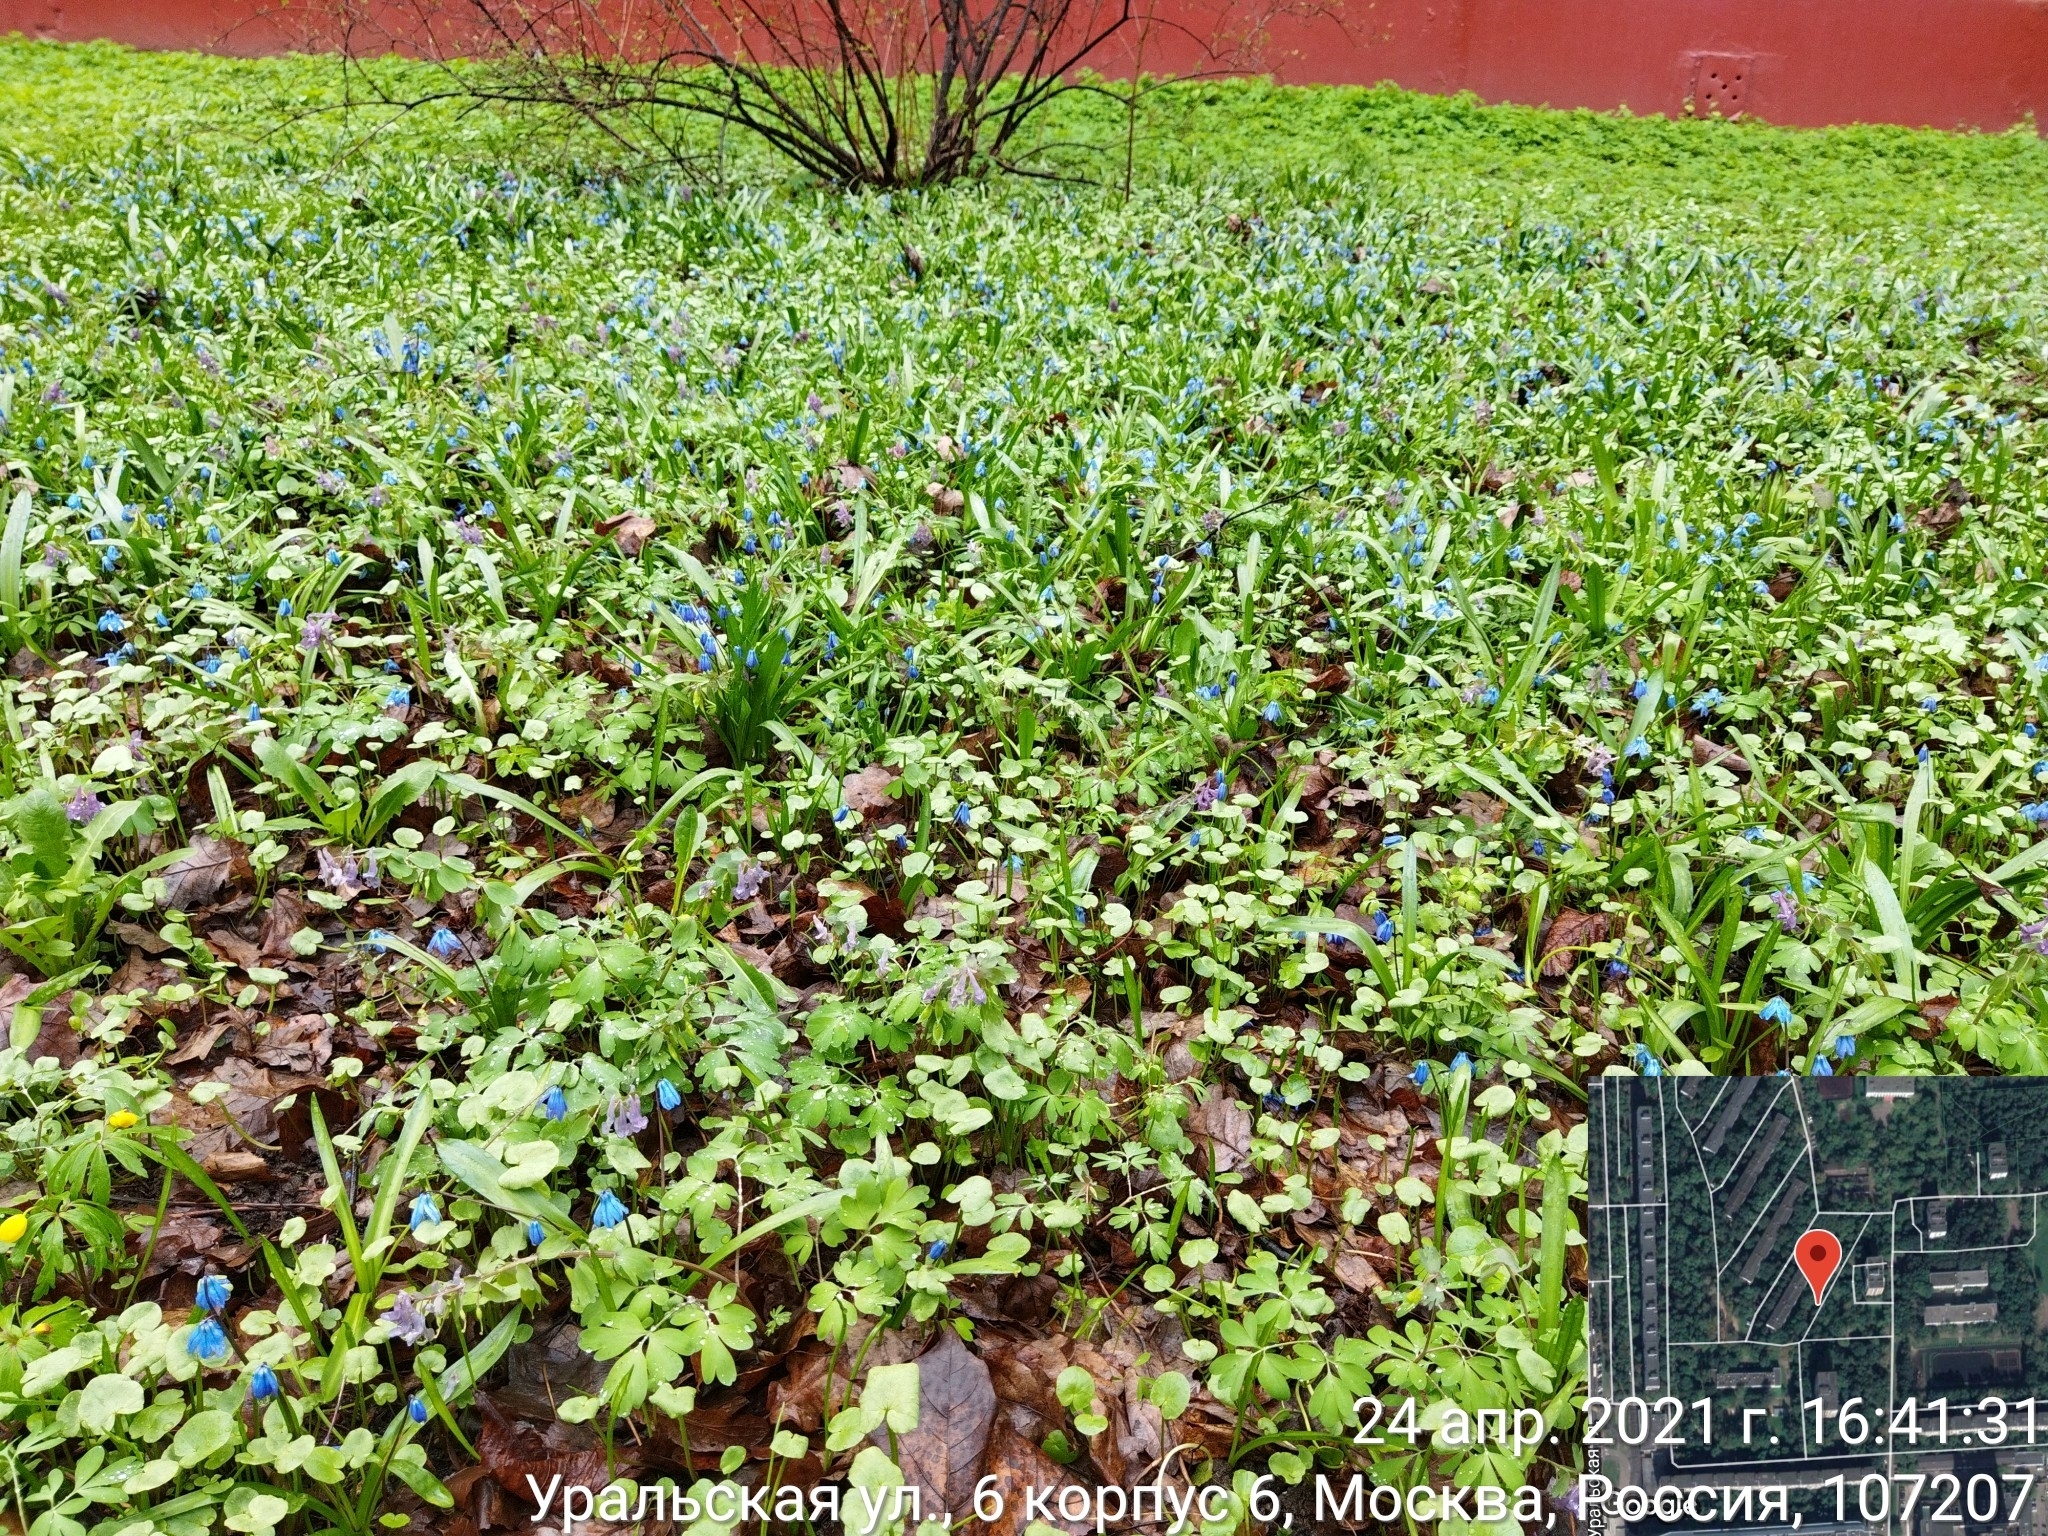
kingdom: Plantae
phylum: Tracheophyta
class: Liliopsida
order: Asparagales
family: Asparagaceae
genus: Scilla
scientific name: Scilla siberica
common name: Siberian squill
